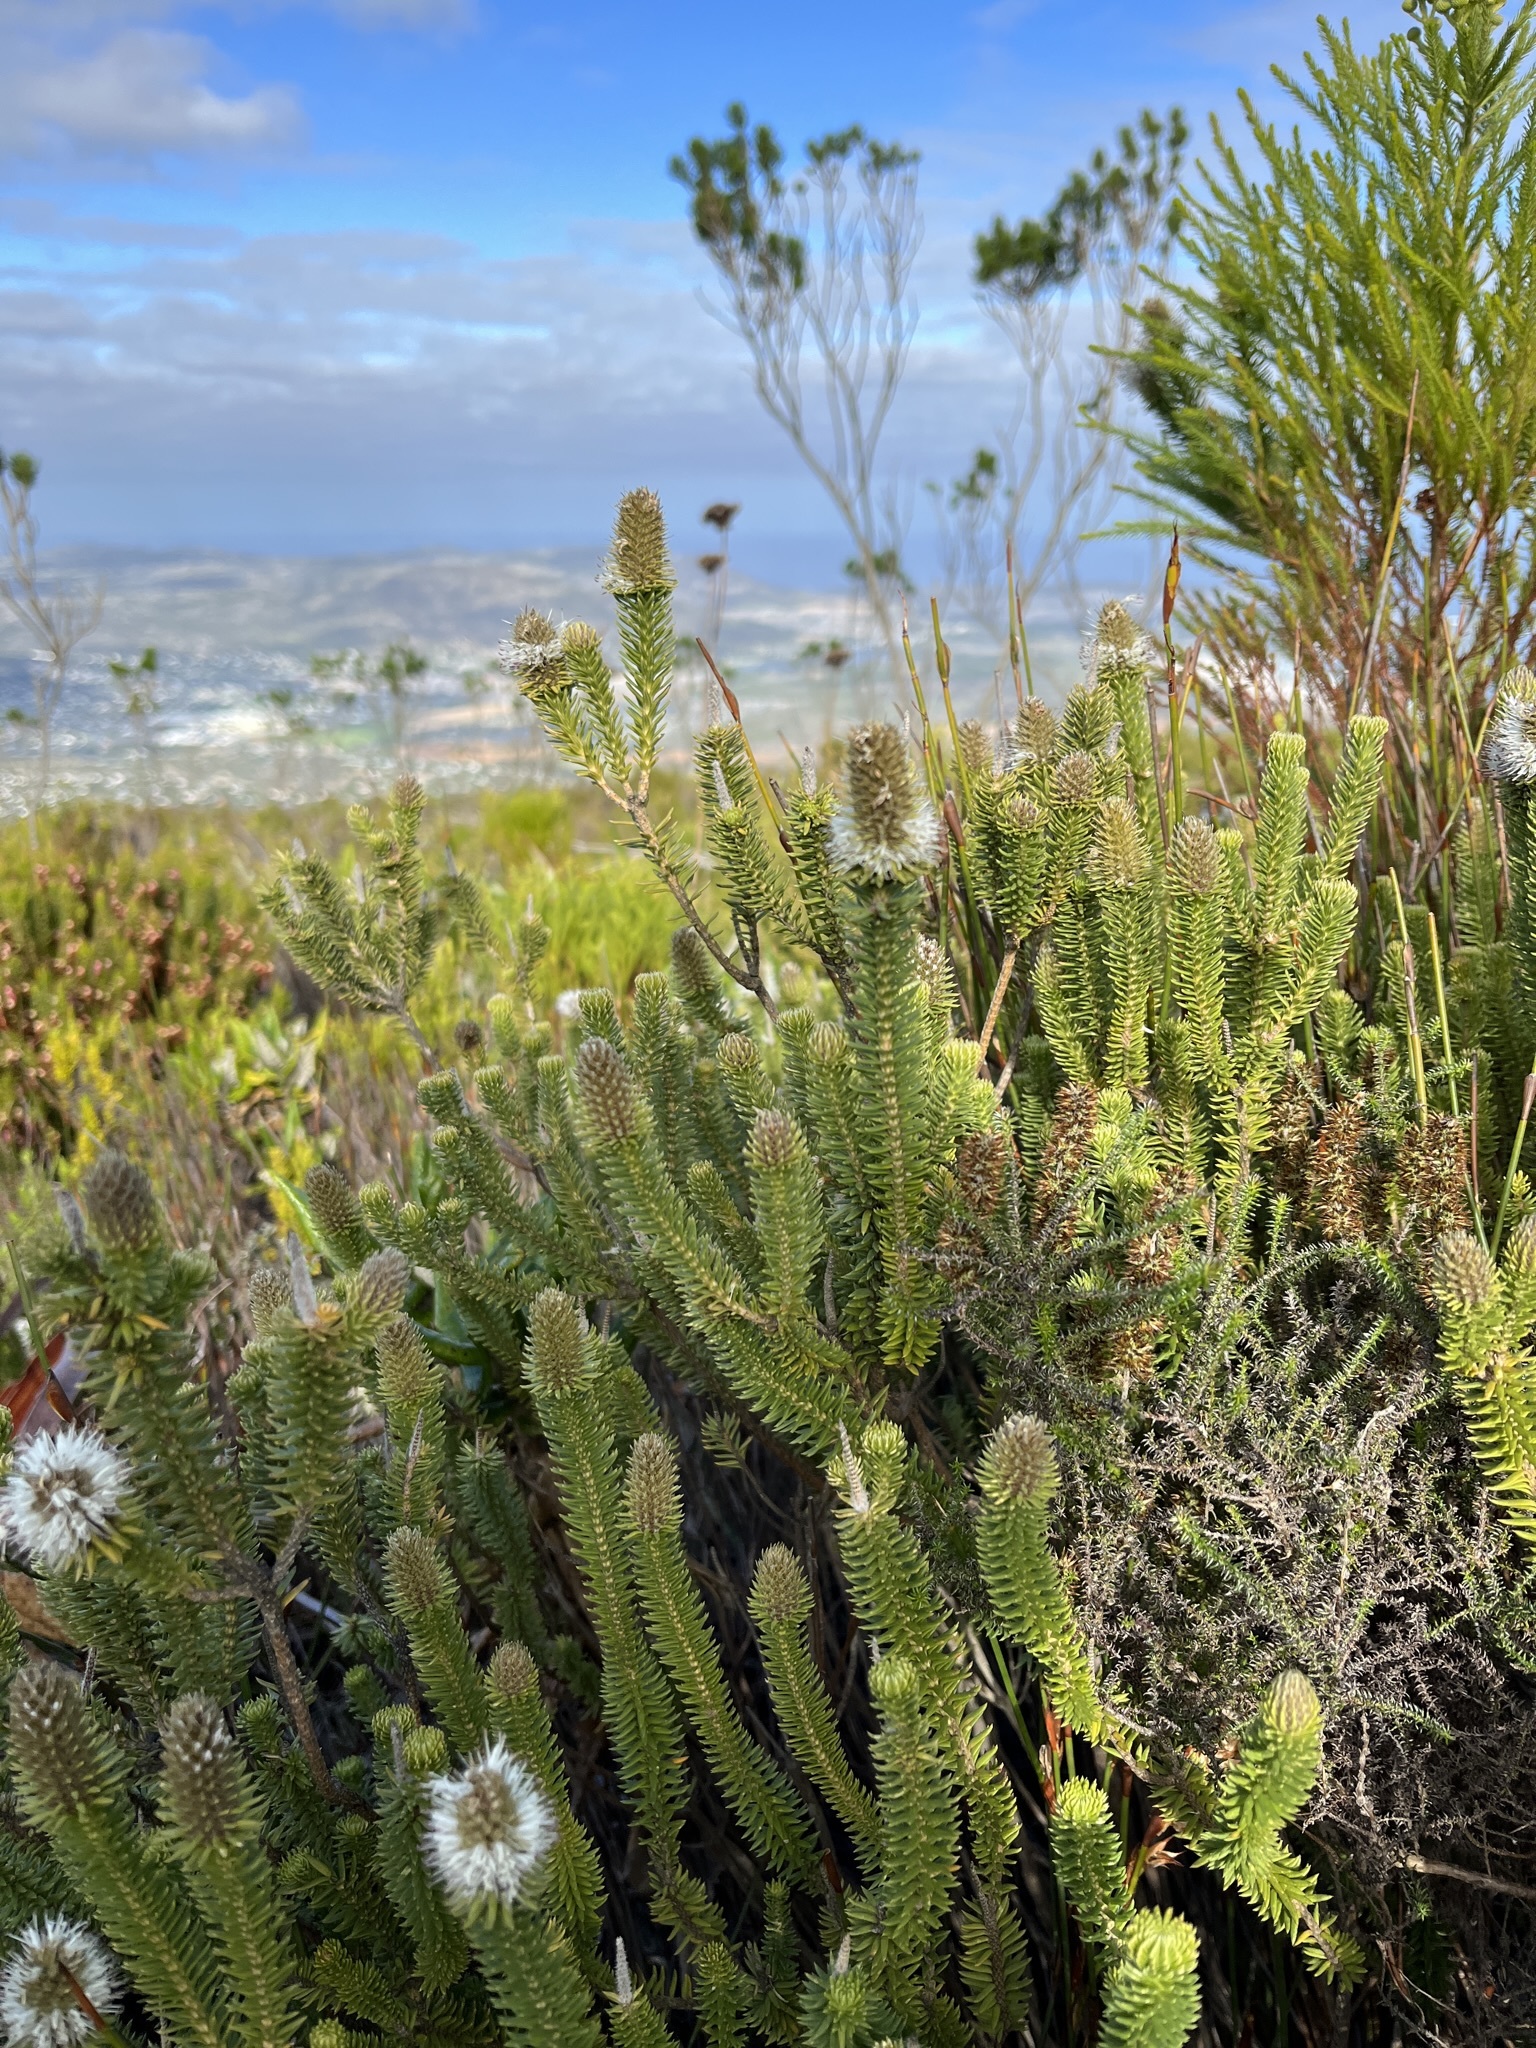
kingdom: Plantae
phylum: Tracheophyta
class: Magnoliopsida
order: Lamiales
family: Stilbaceae
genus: Stilbe
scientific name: Stilbe vestita
